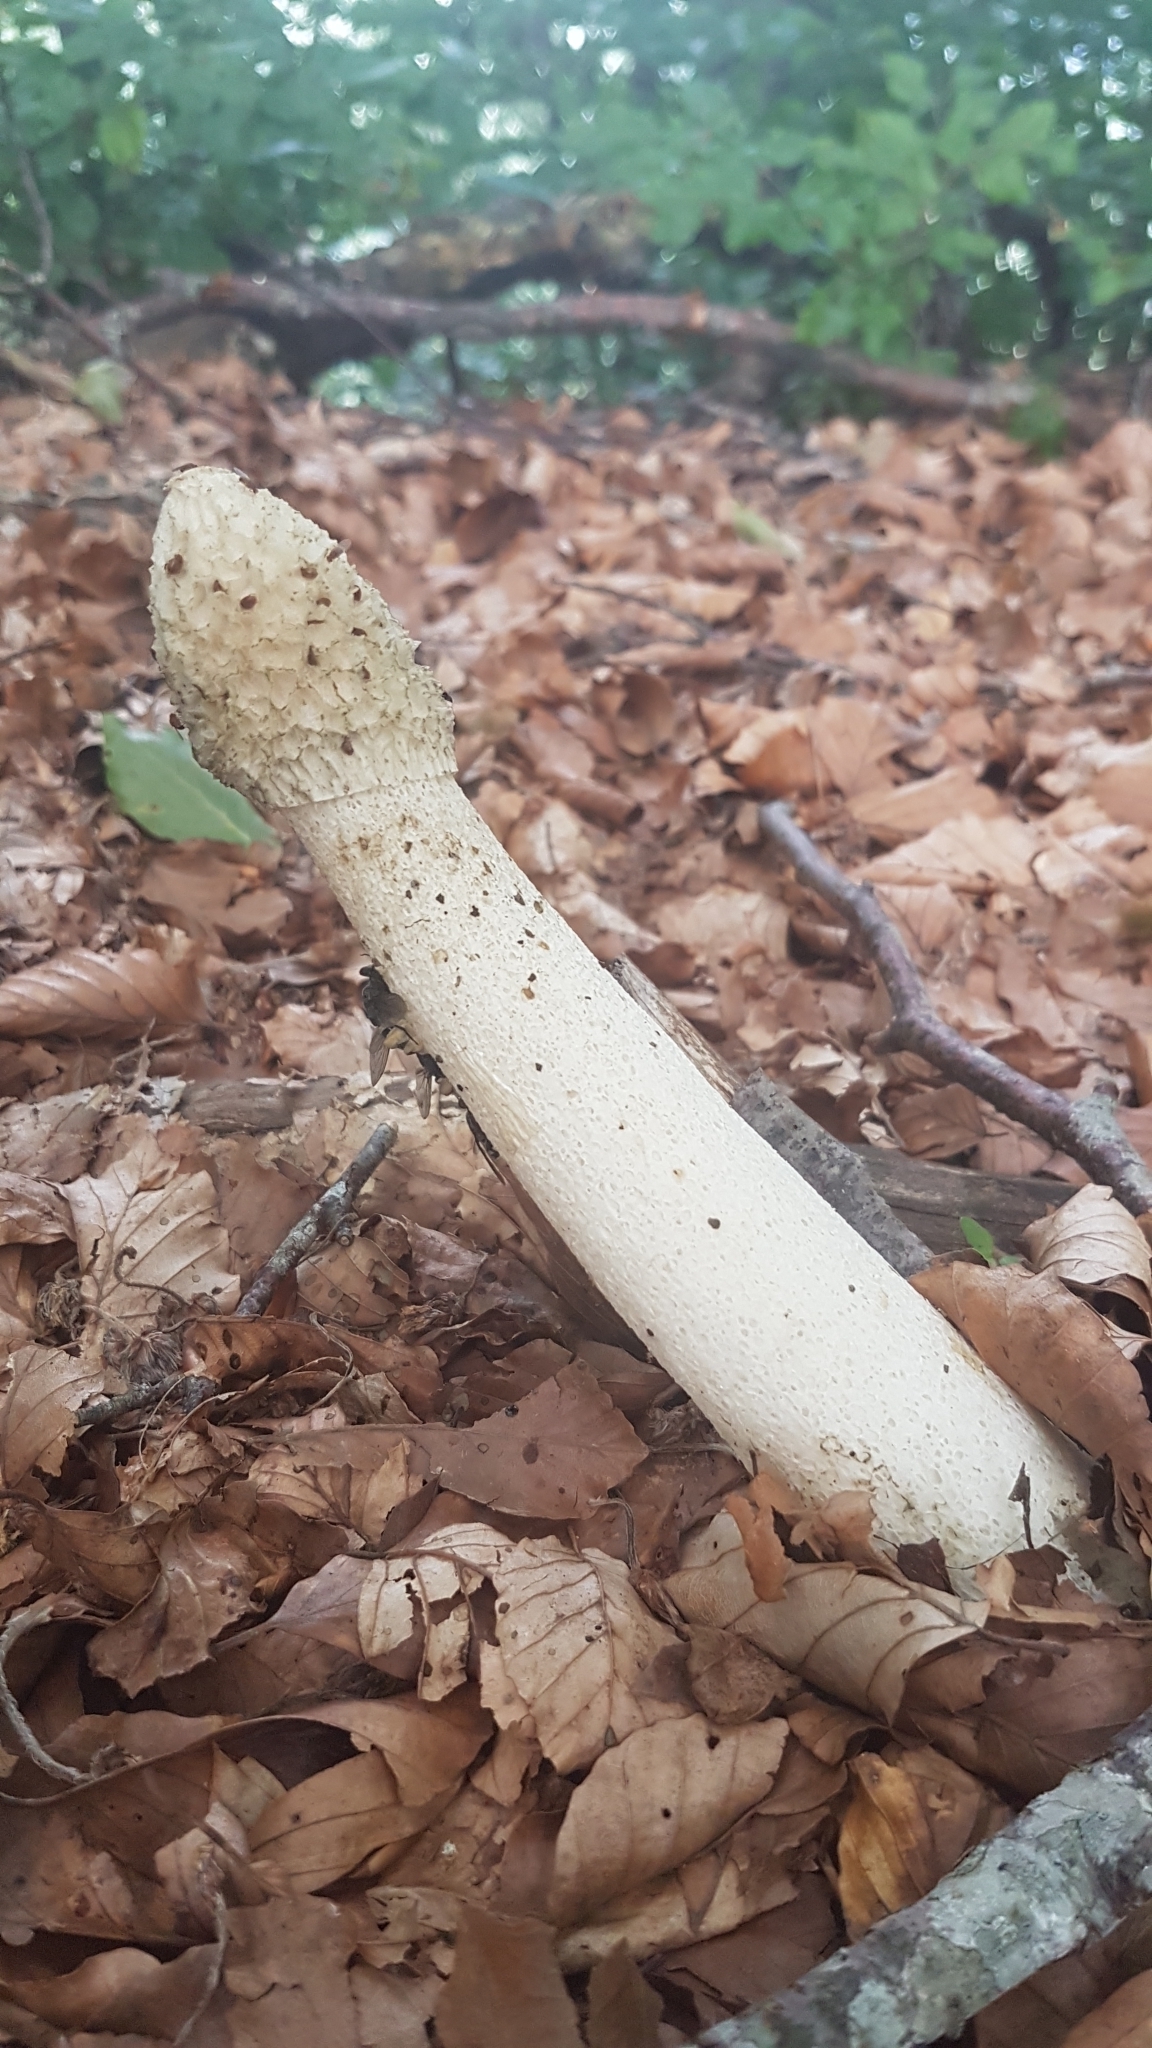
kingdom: Fungi
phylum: Basidiomycota
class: Agaricomycetes
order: Phallales
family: Phallaceae
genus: Phallus
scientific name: Phallus impudicus
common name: Common stinkhorn
